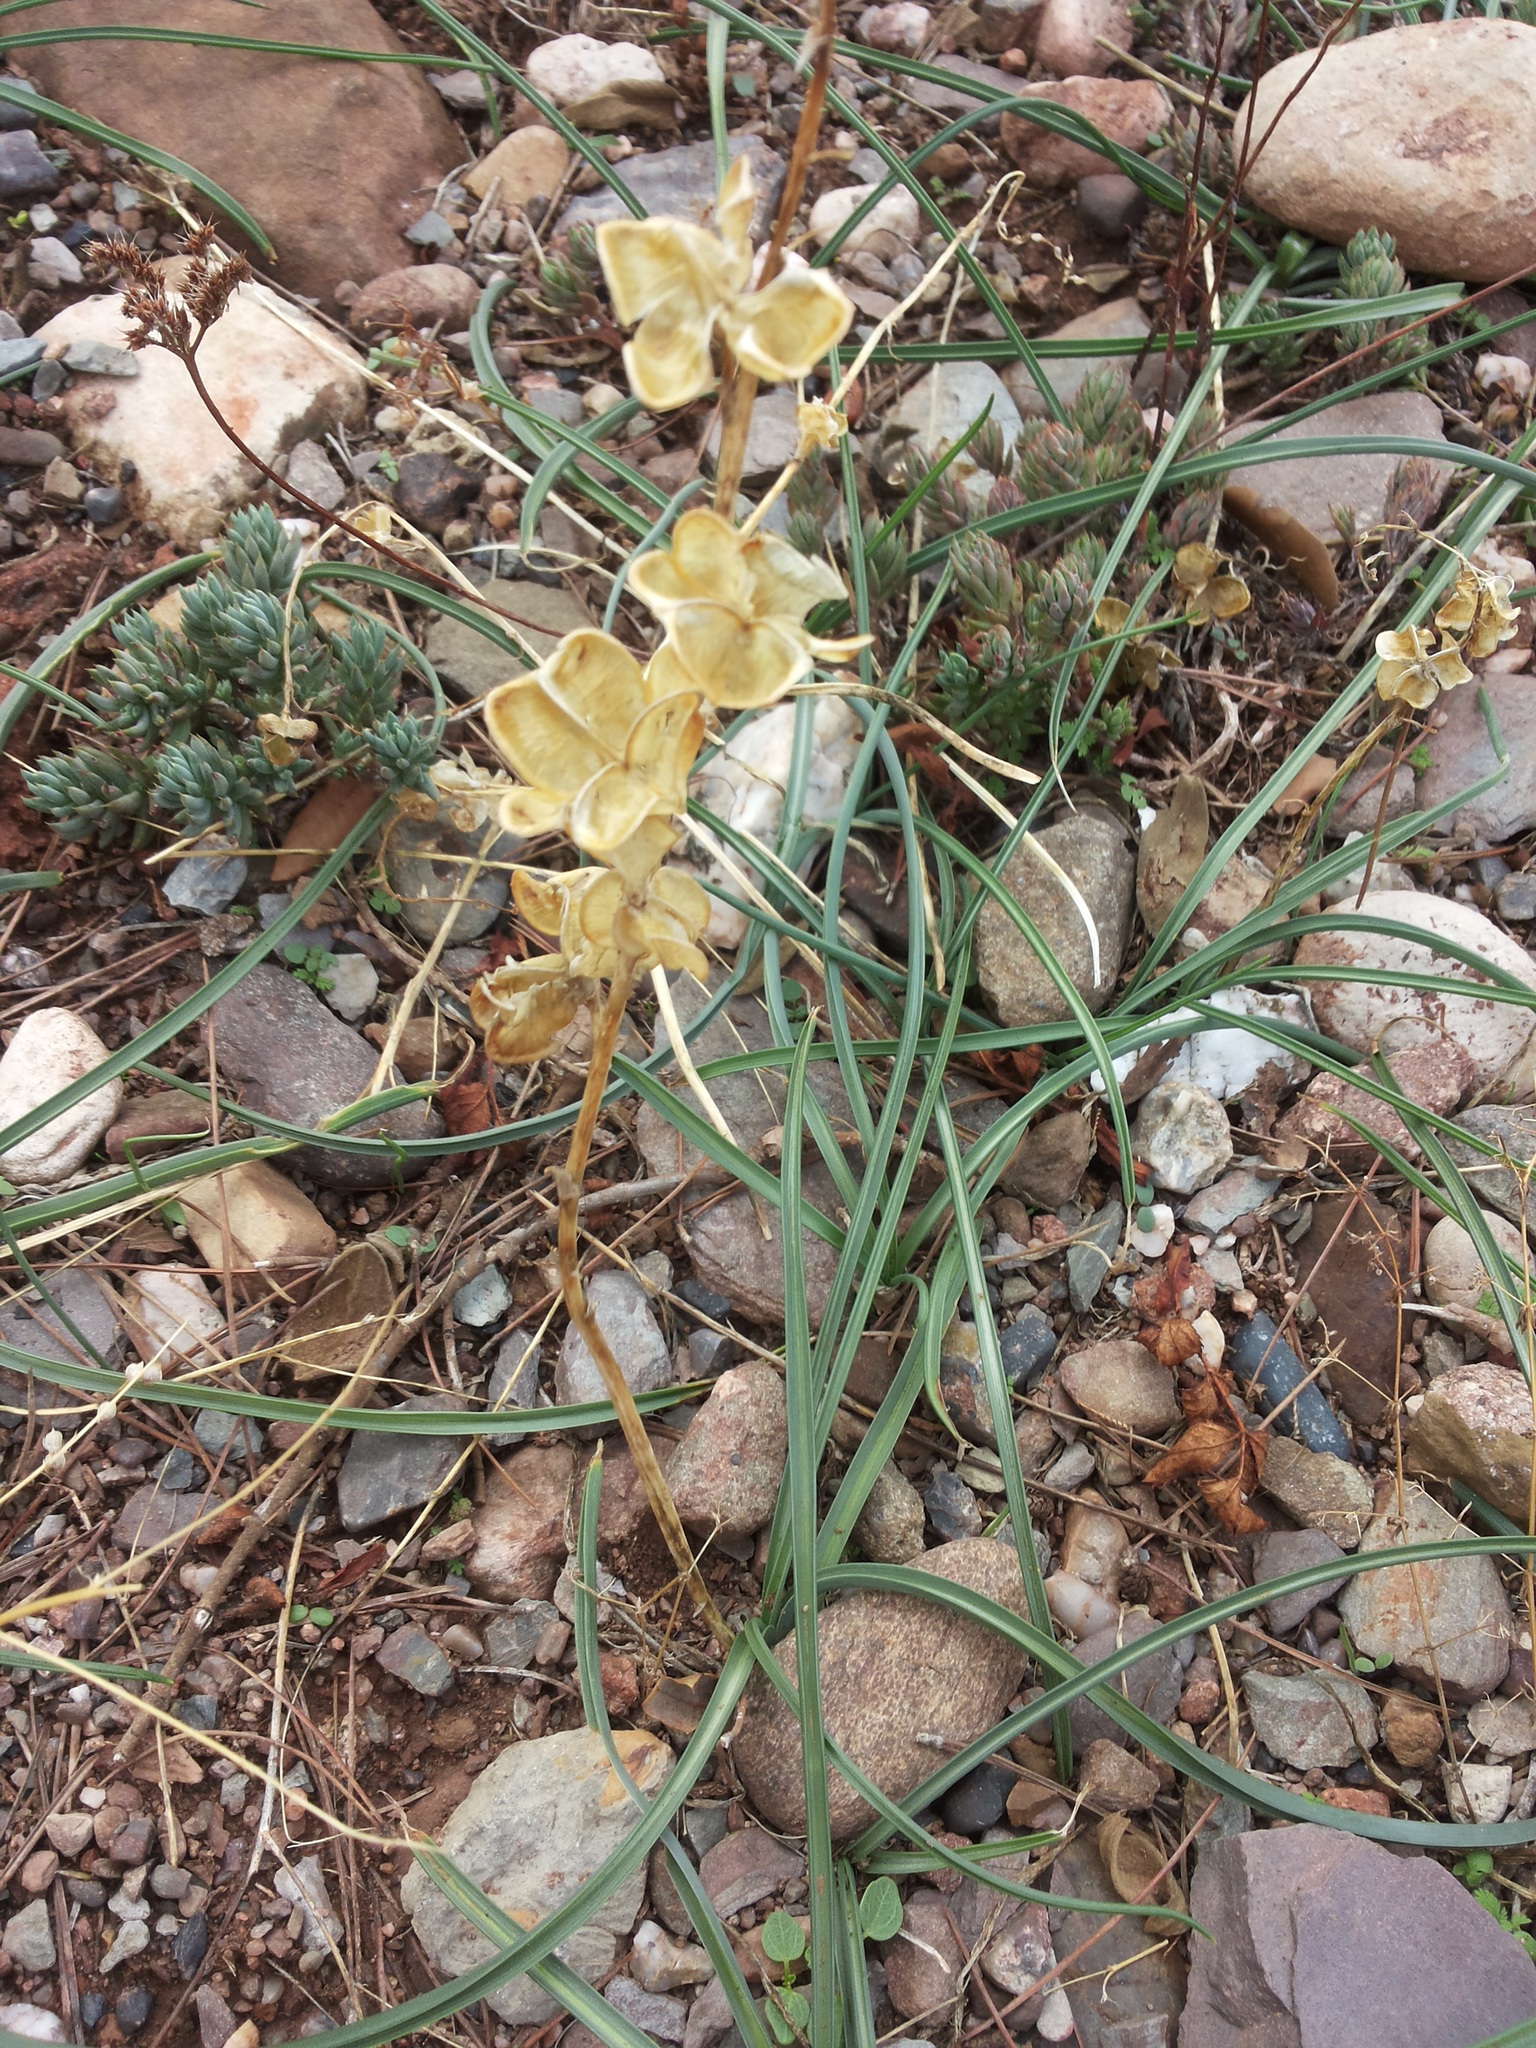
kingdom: Plantae
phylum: Tracheophyta
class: Liliopsida
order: Asparagales
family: Asparagaceae
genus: Dipcadi
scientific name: Dipcadi serotinum
